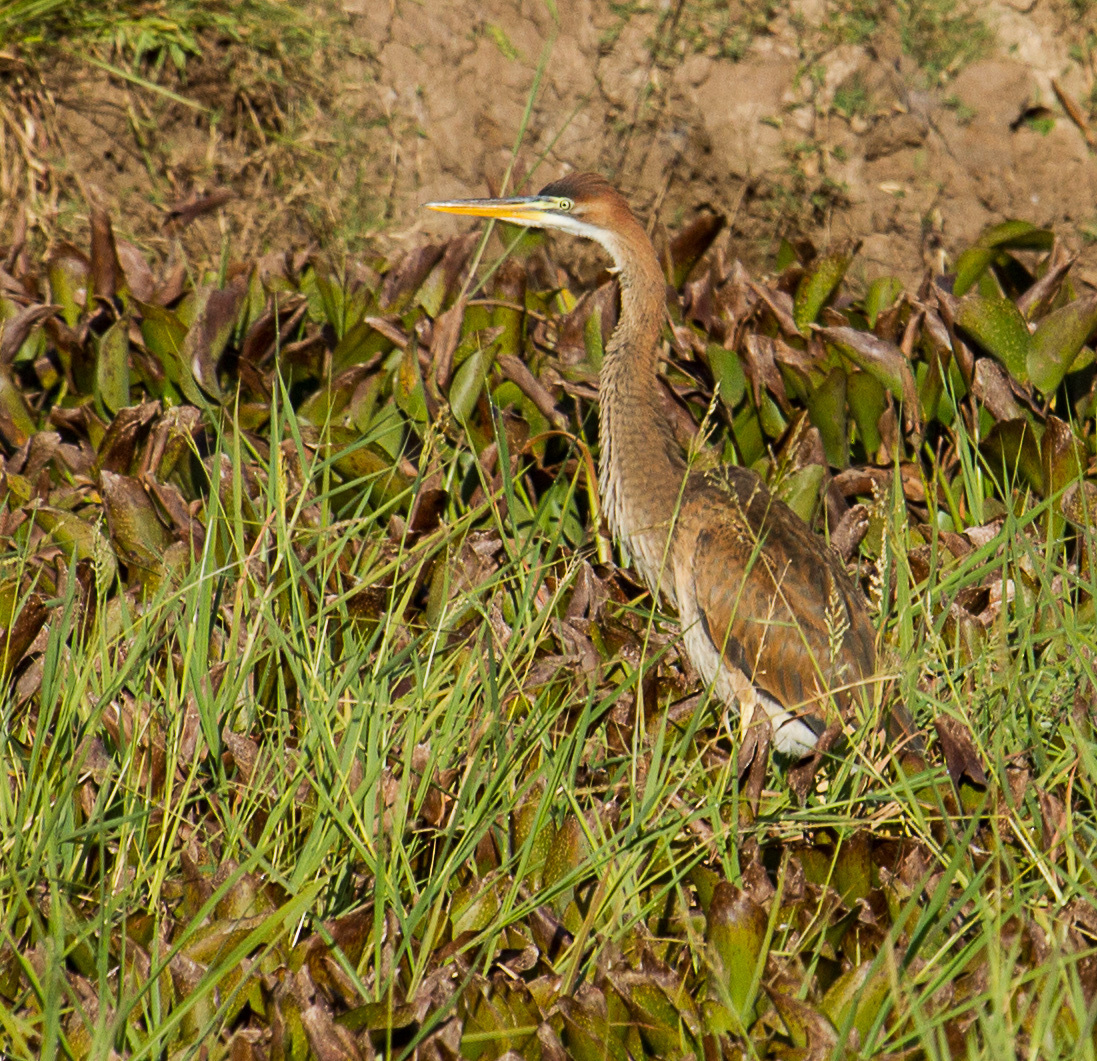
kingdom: Animalia
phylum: Chordata
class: Aves
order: Pelecaniformes
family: Ardeidae
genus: Ardea
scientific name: Ardea purpurea
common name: Purple heron
